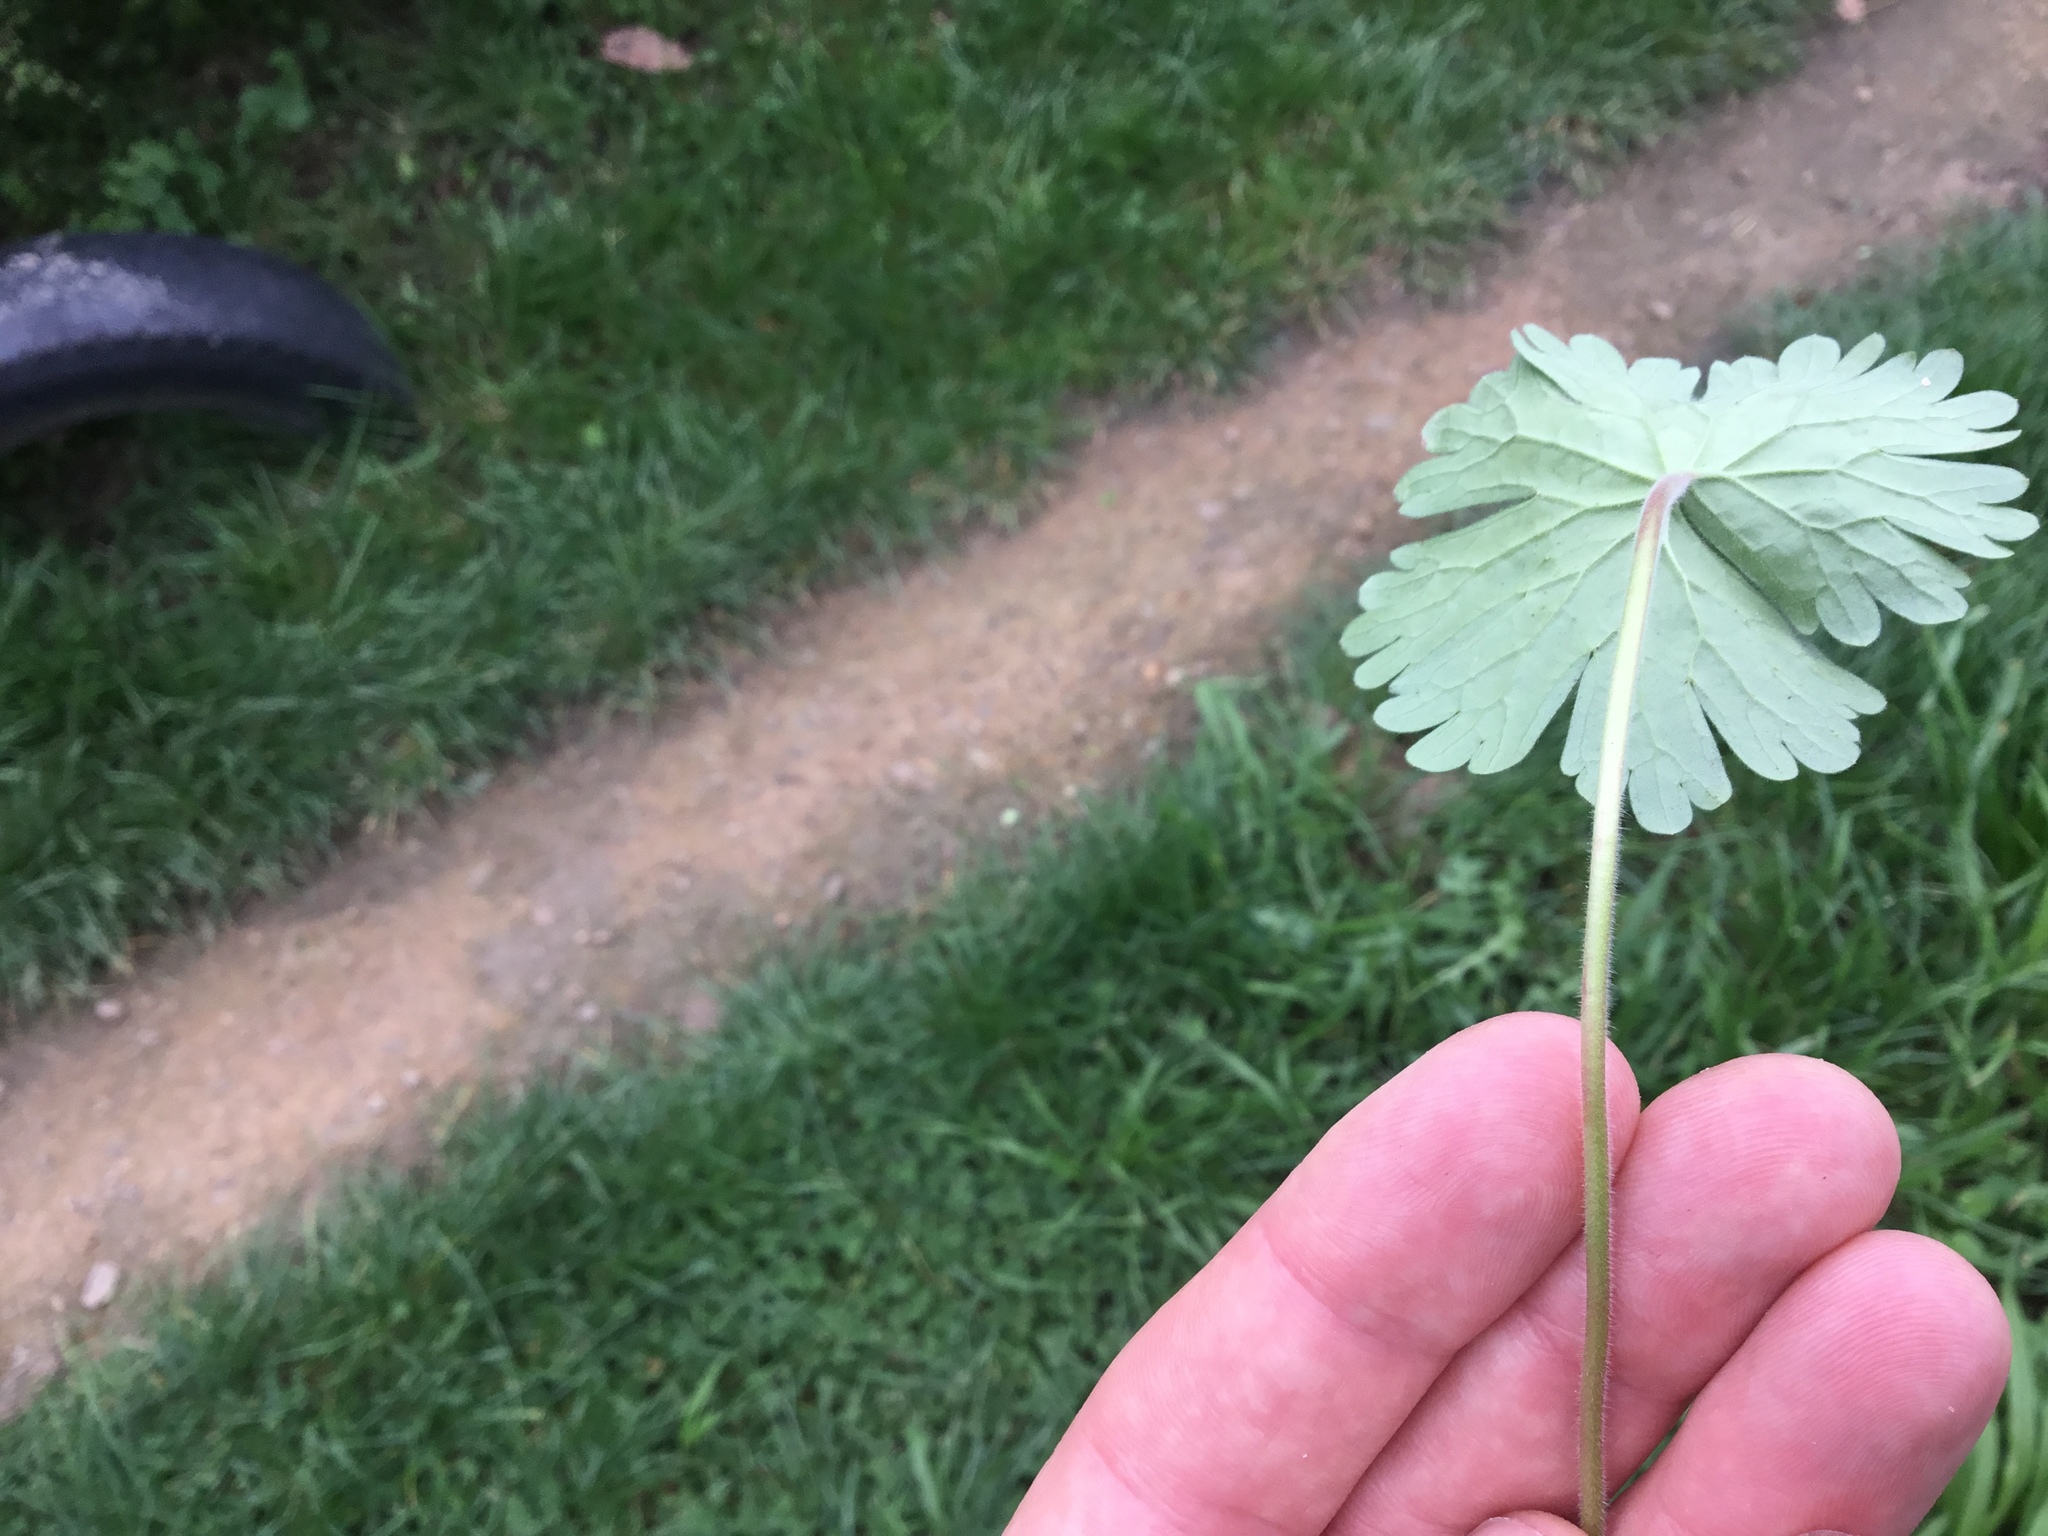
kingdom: Plantae
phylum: Tracheophyta
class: Magnoliopsida
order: Geraniales
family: Geraniaceae
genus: Geranium
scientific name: Geranium molle
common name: Dove's-foot crane's-bill
